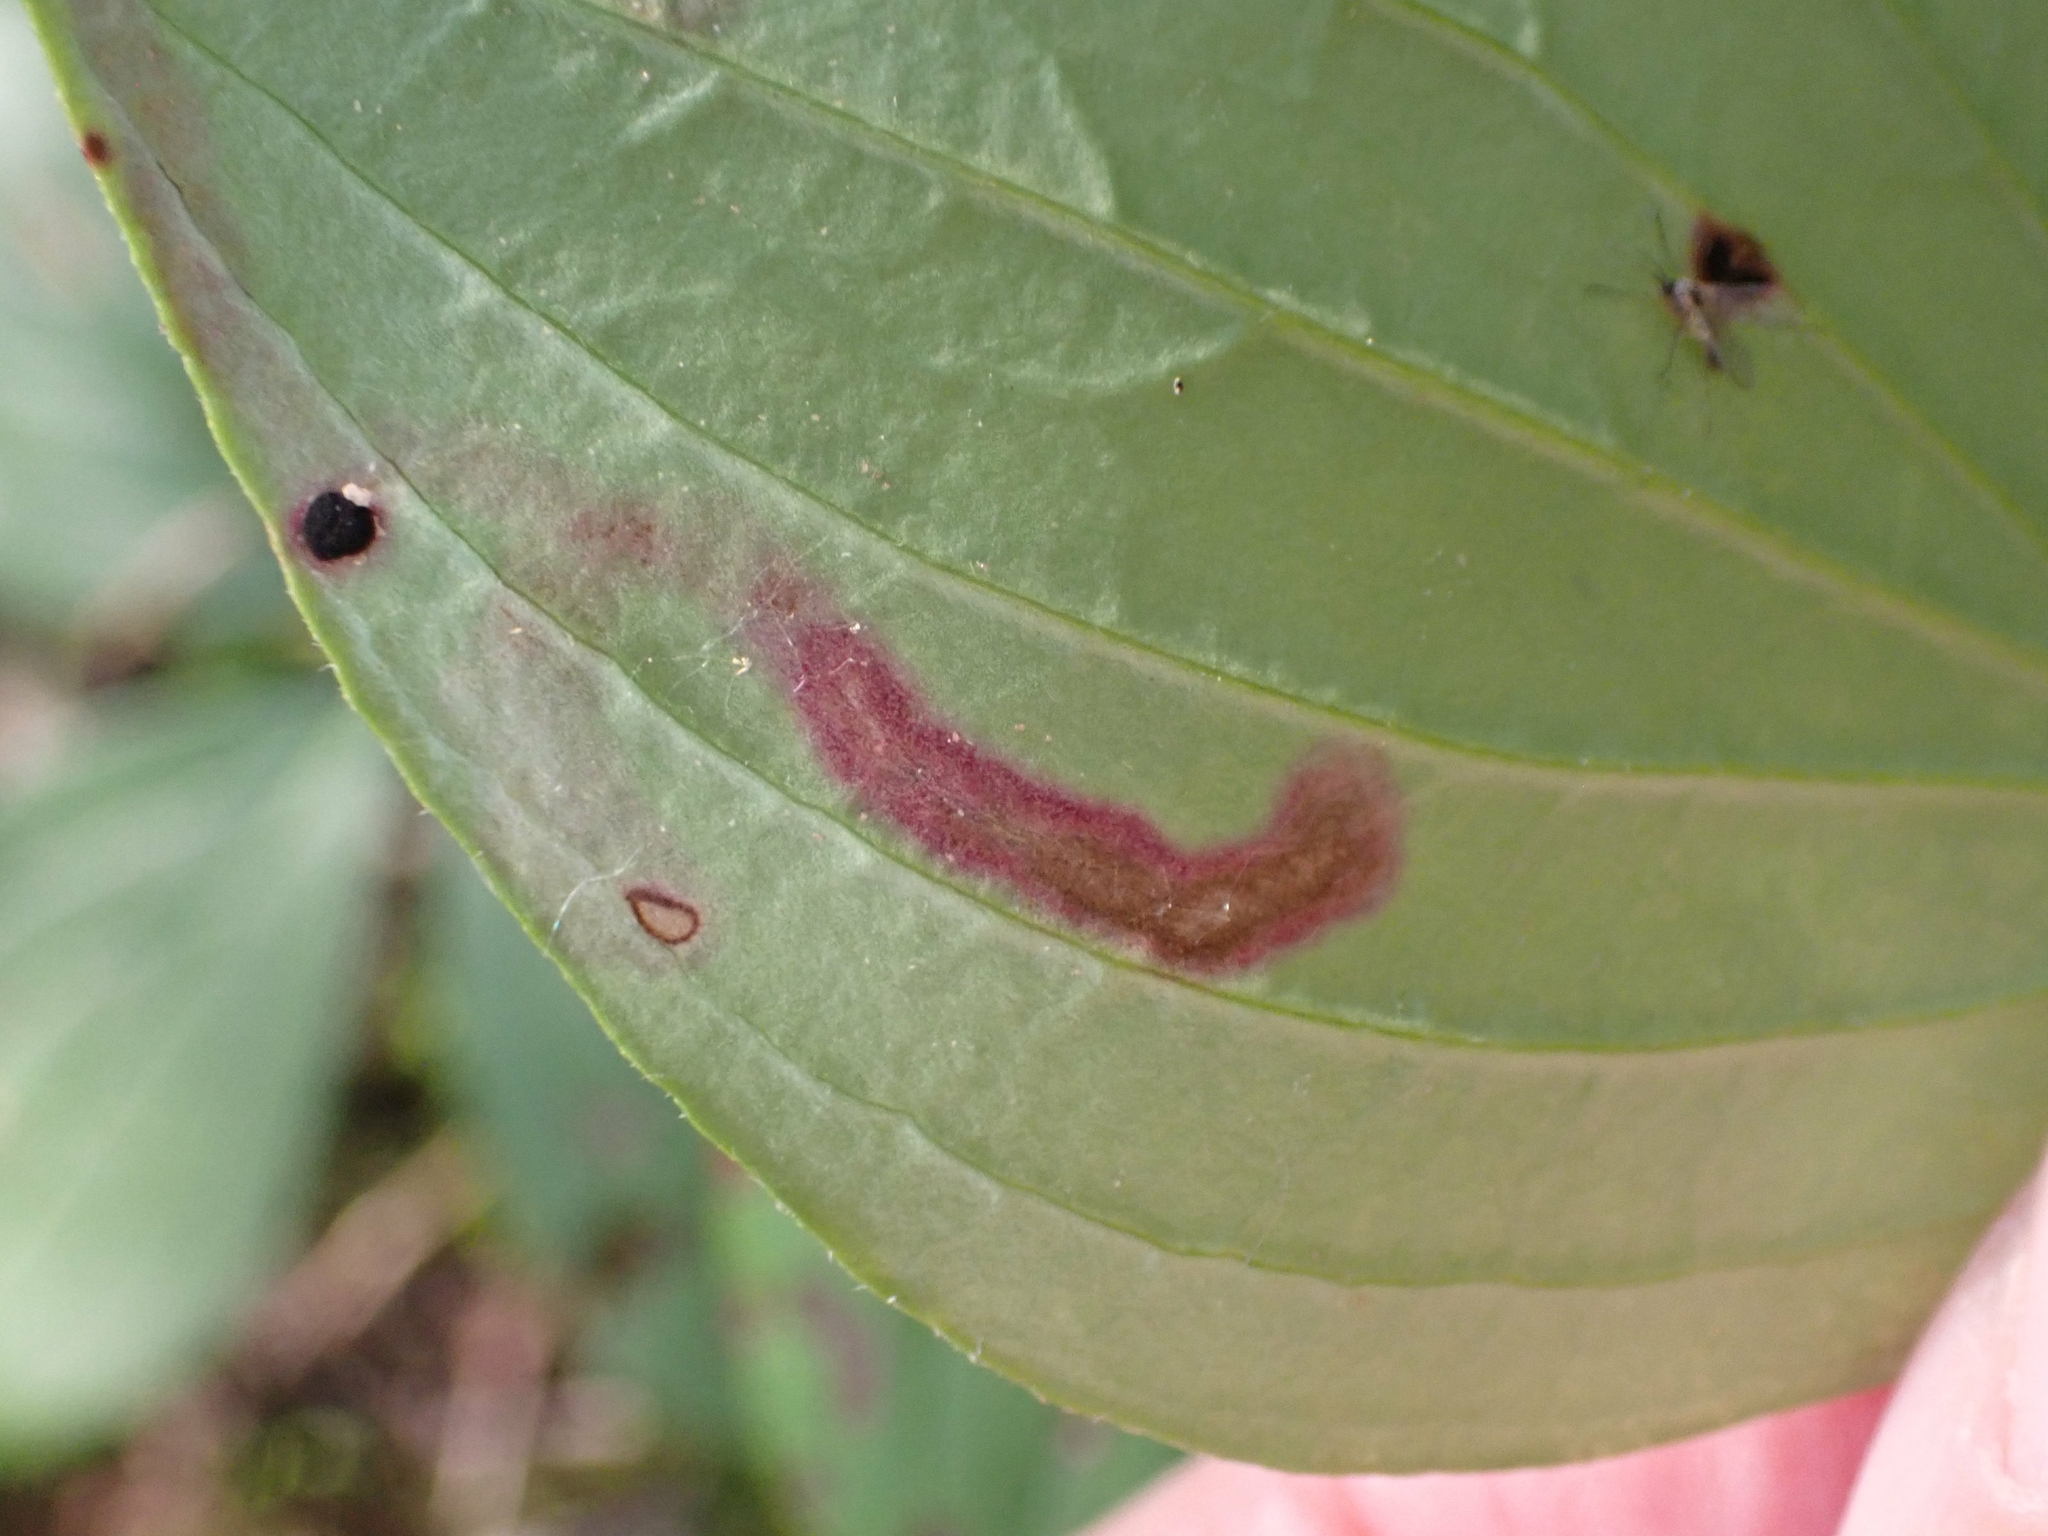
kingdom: Animalia
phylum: Arthropoda
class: Insecta
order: Diptera
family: Agromyzidae
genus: Phytomyza
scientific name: Phytomyza agromyzina
